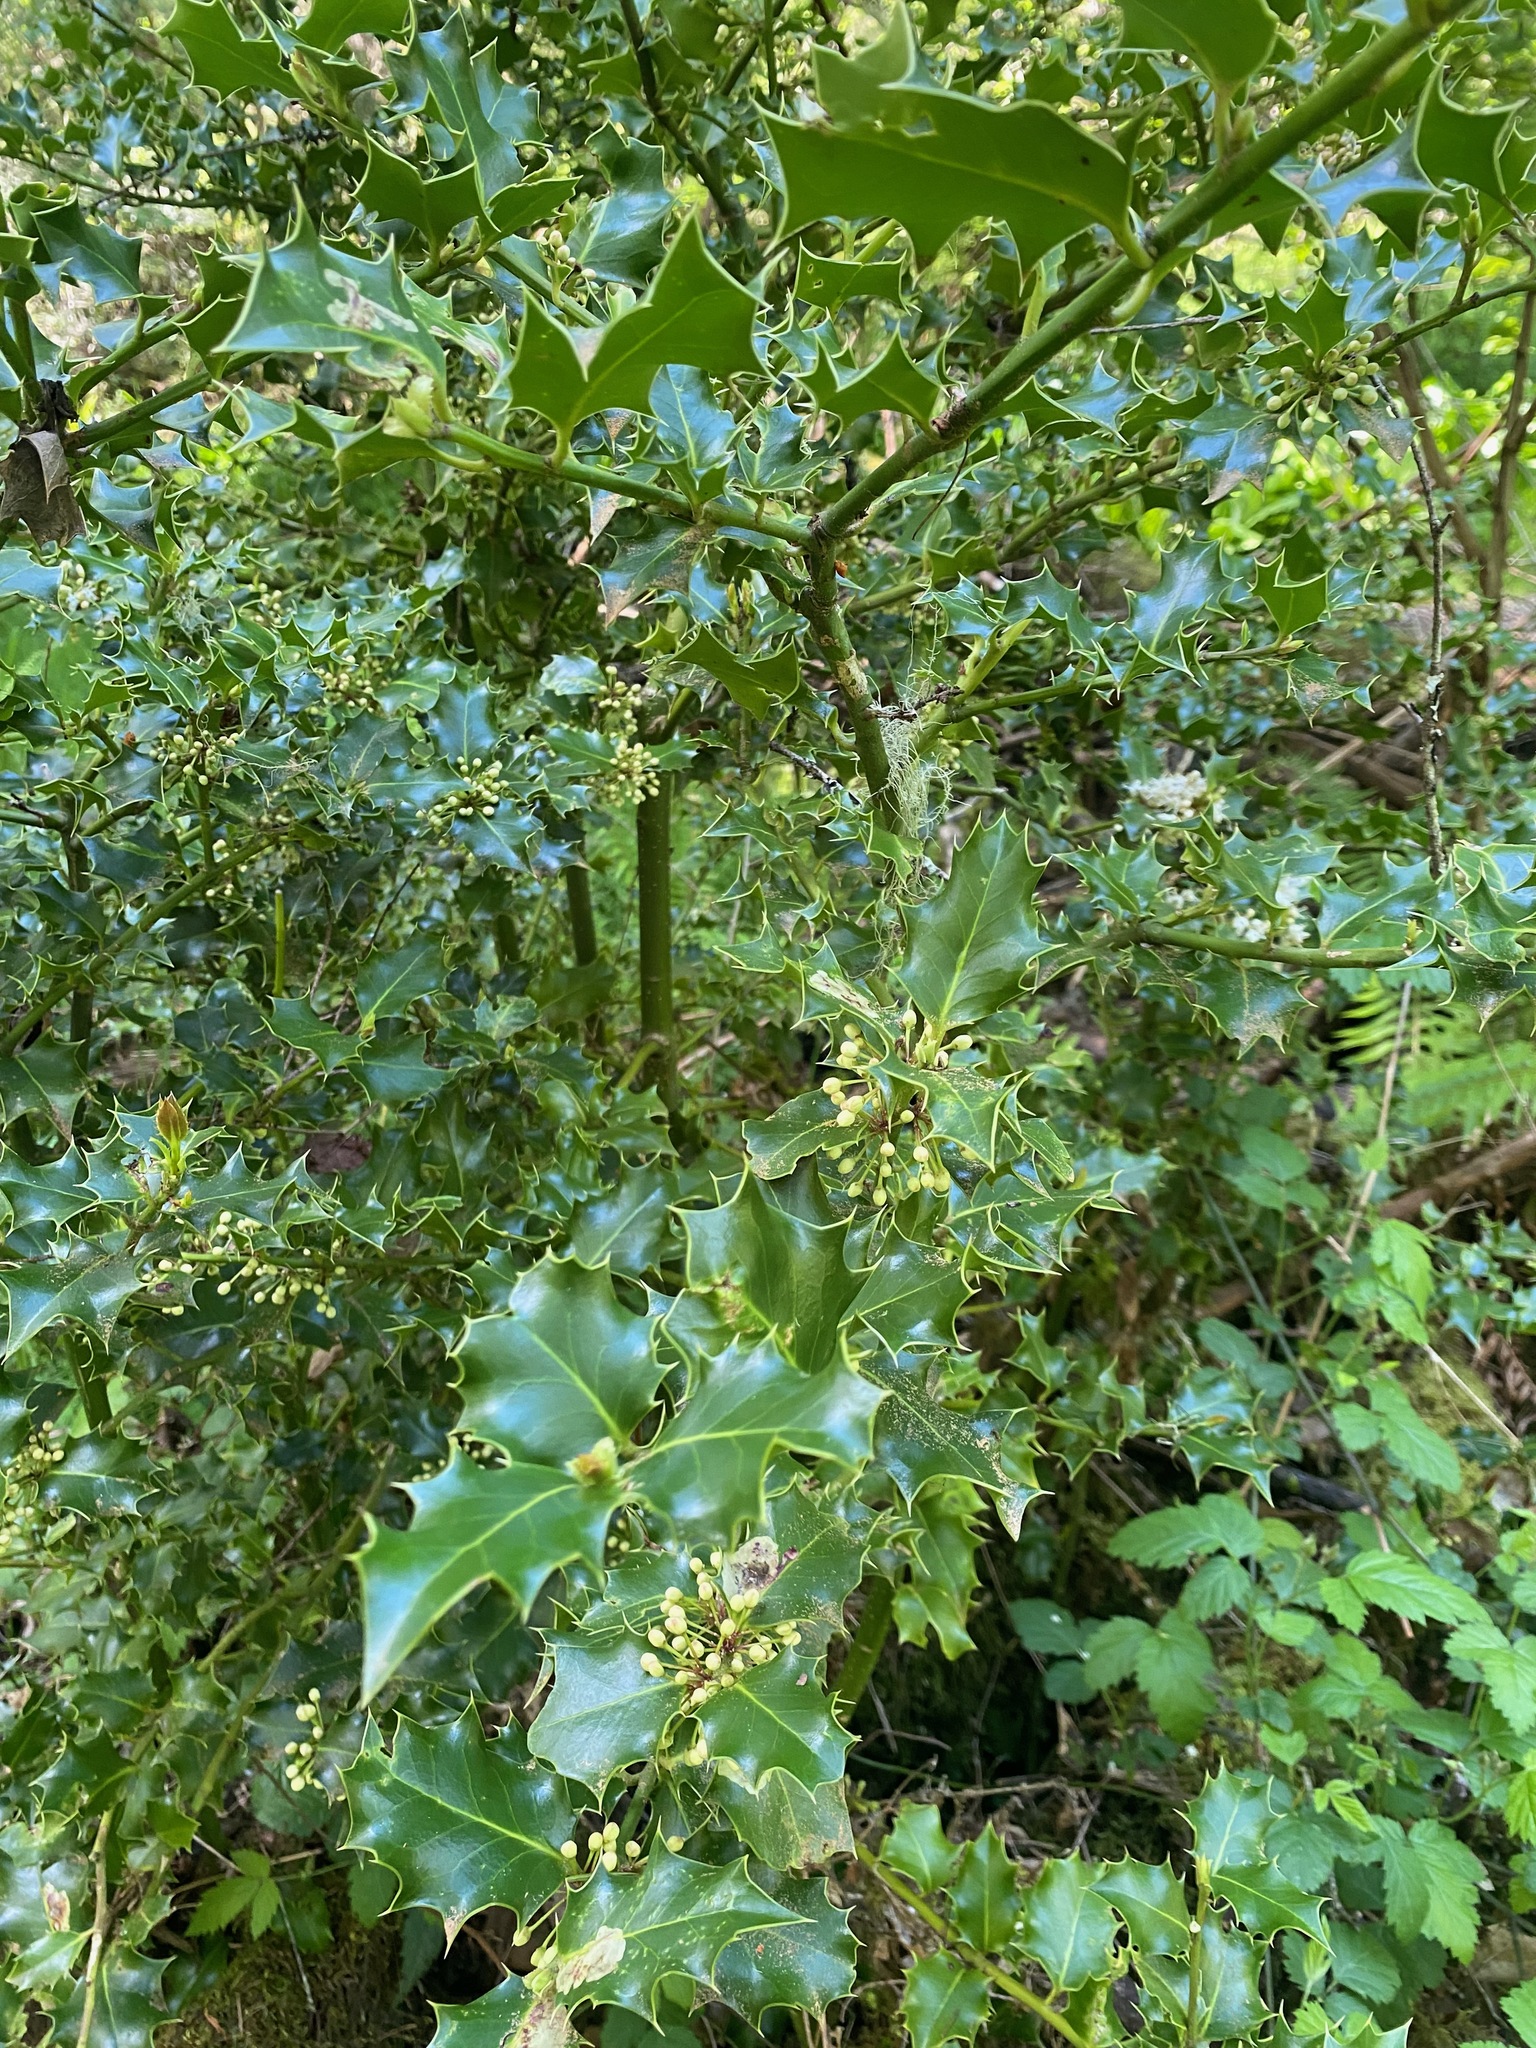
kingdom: Plantae
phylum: Tracheophyta
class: Magnoliopsida
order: Aquifoliales
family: Aquifoliaceae
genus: Ilex
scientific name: Ilex aquifolium
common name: English holly
